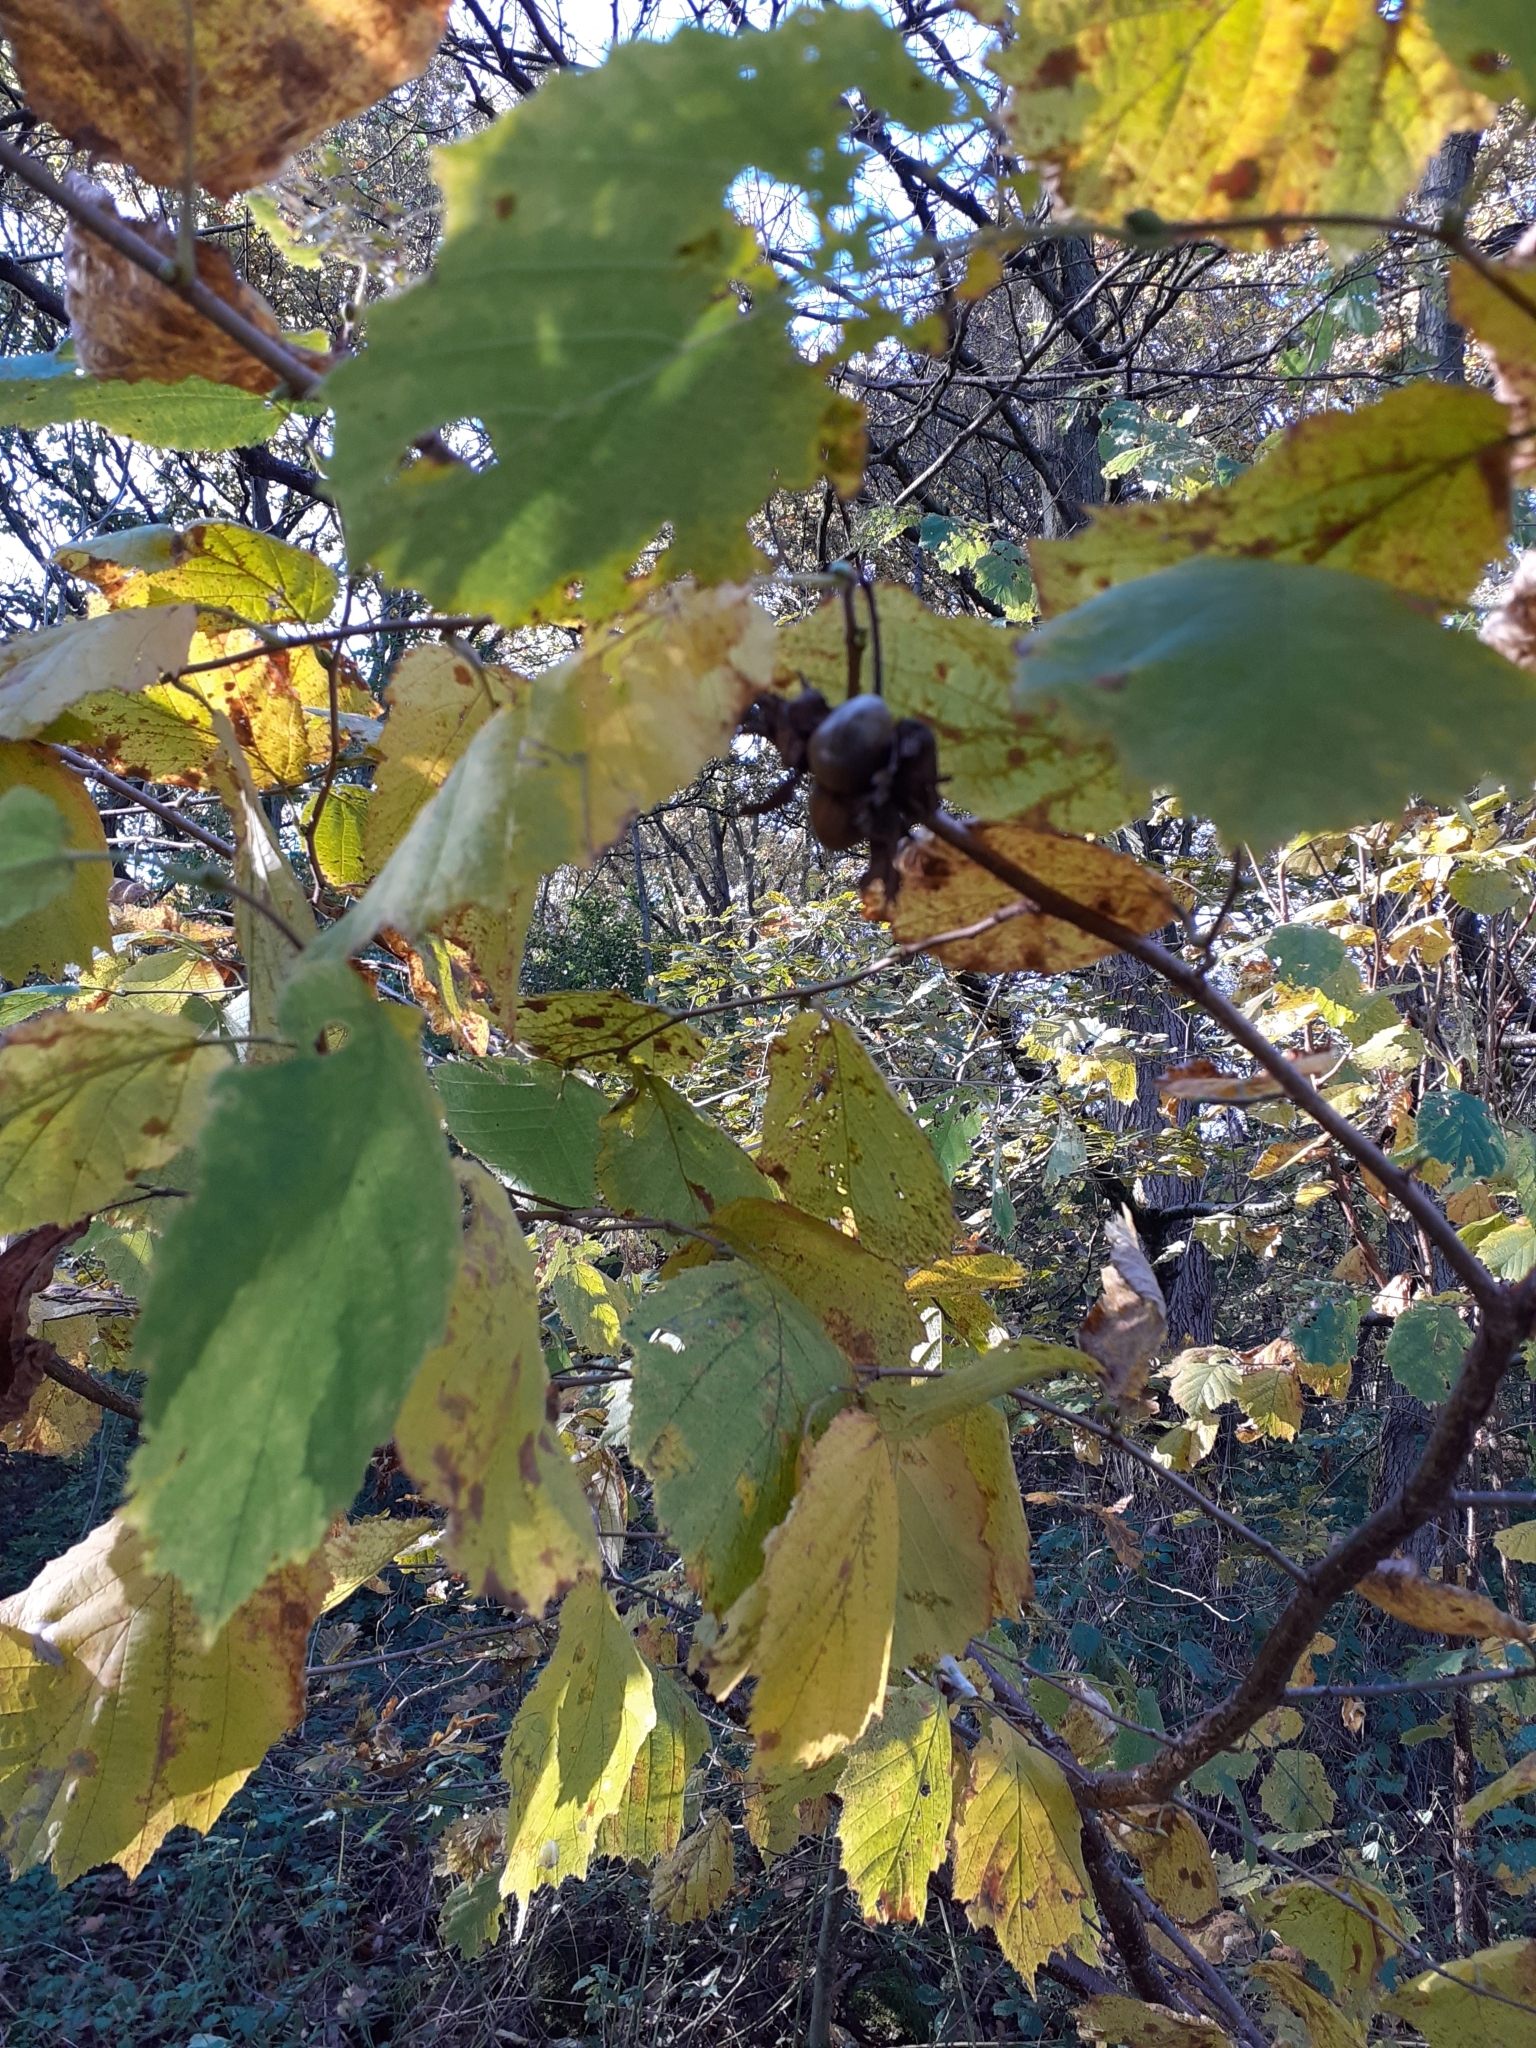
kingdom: Plantae
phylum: Tracheophyta
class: Magnoliopsida
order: Fagales
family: Betulaceae
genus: Corylus
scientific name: Corylus avellana
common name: European hazel
